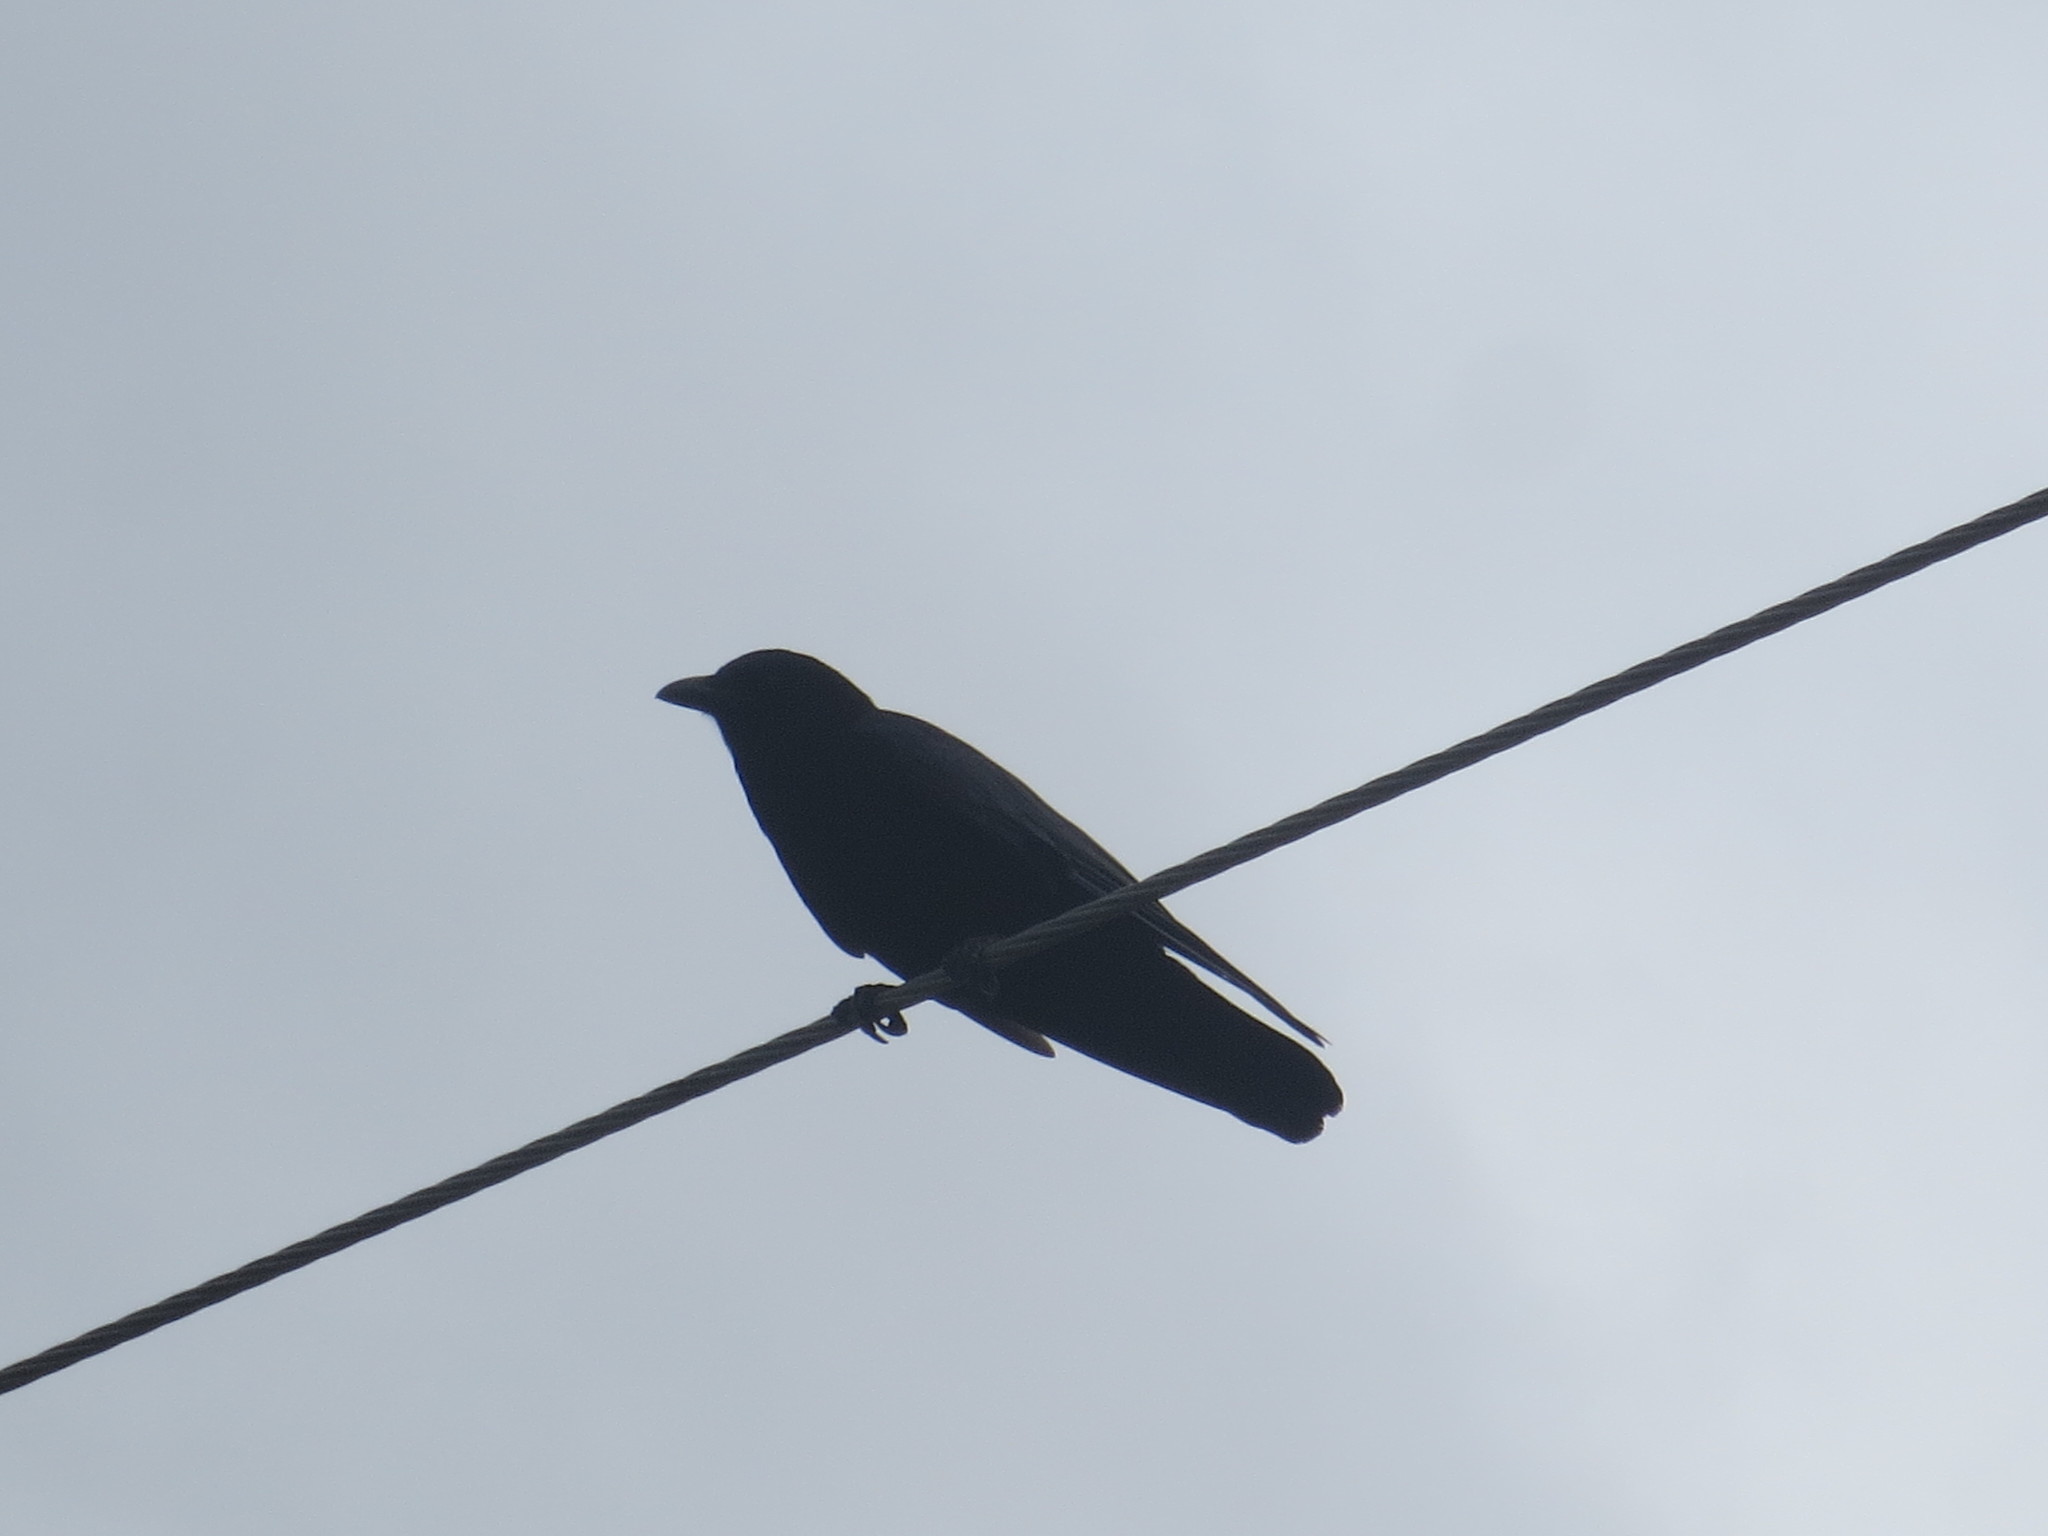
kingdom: Animalia
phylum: Chordata
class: Aves
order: Passeriformes
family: Corvidae
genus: Corvus
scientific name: Corvus brachyrhynchos
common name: American crow
